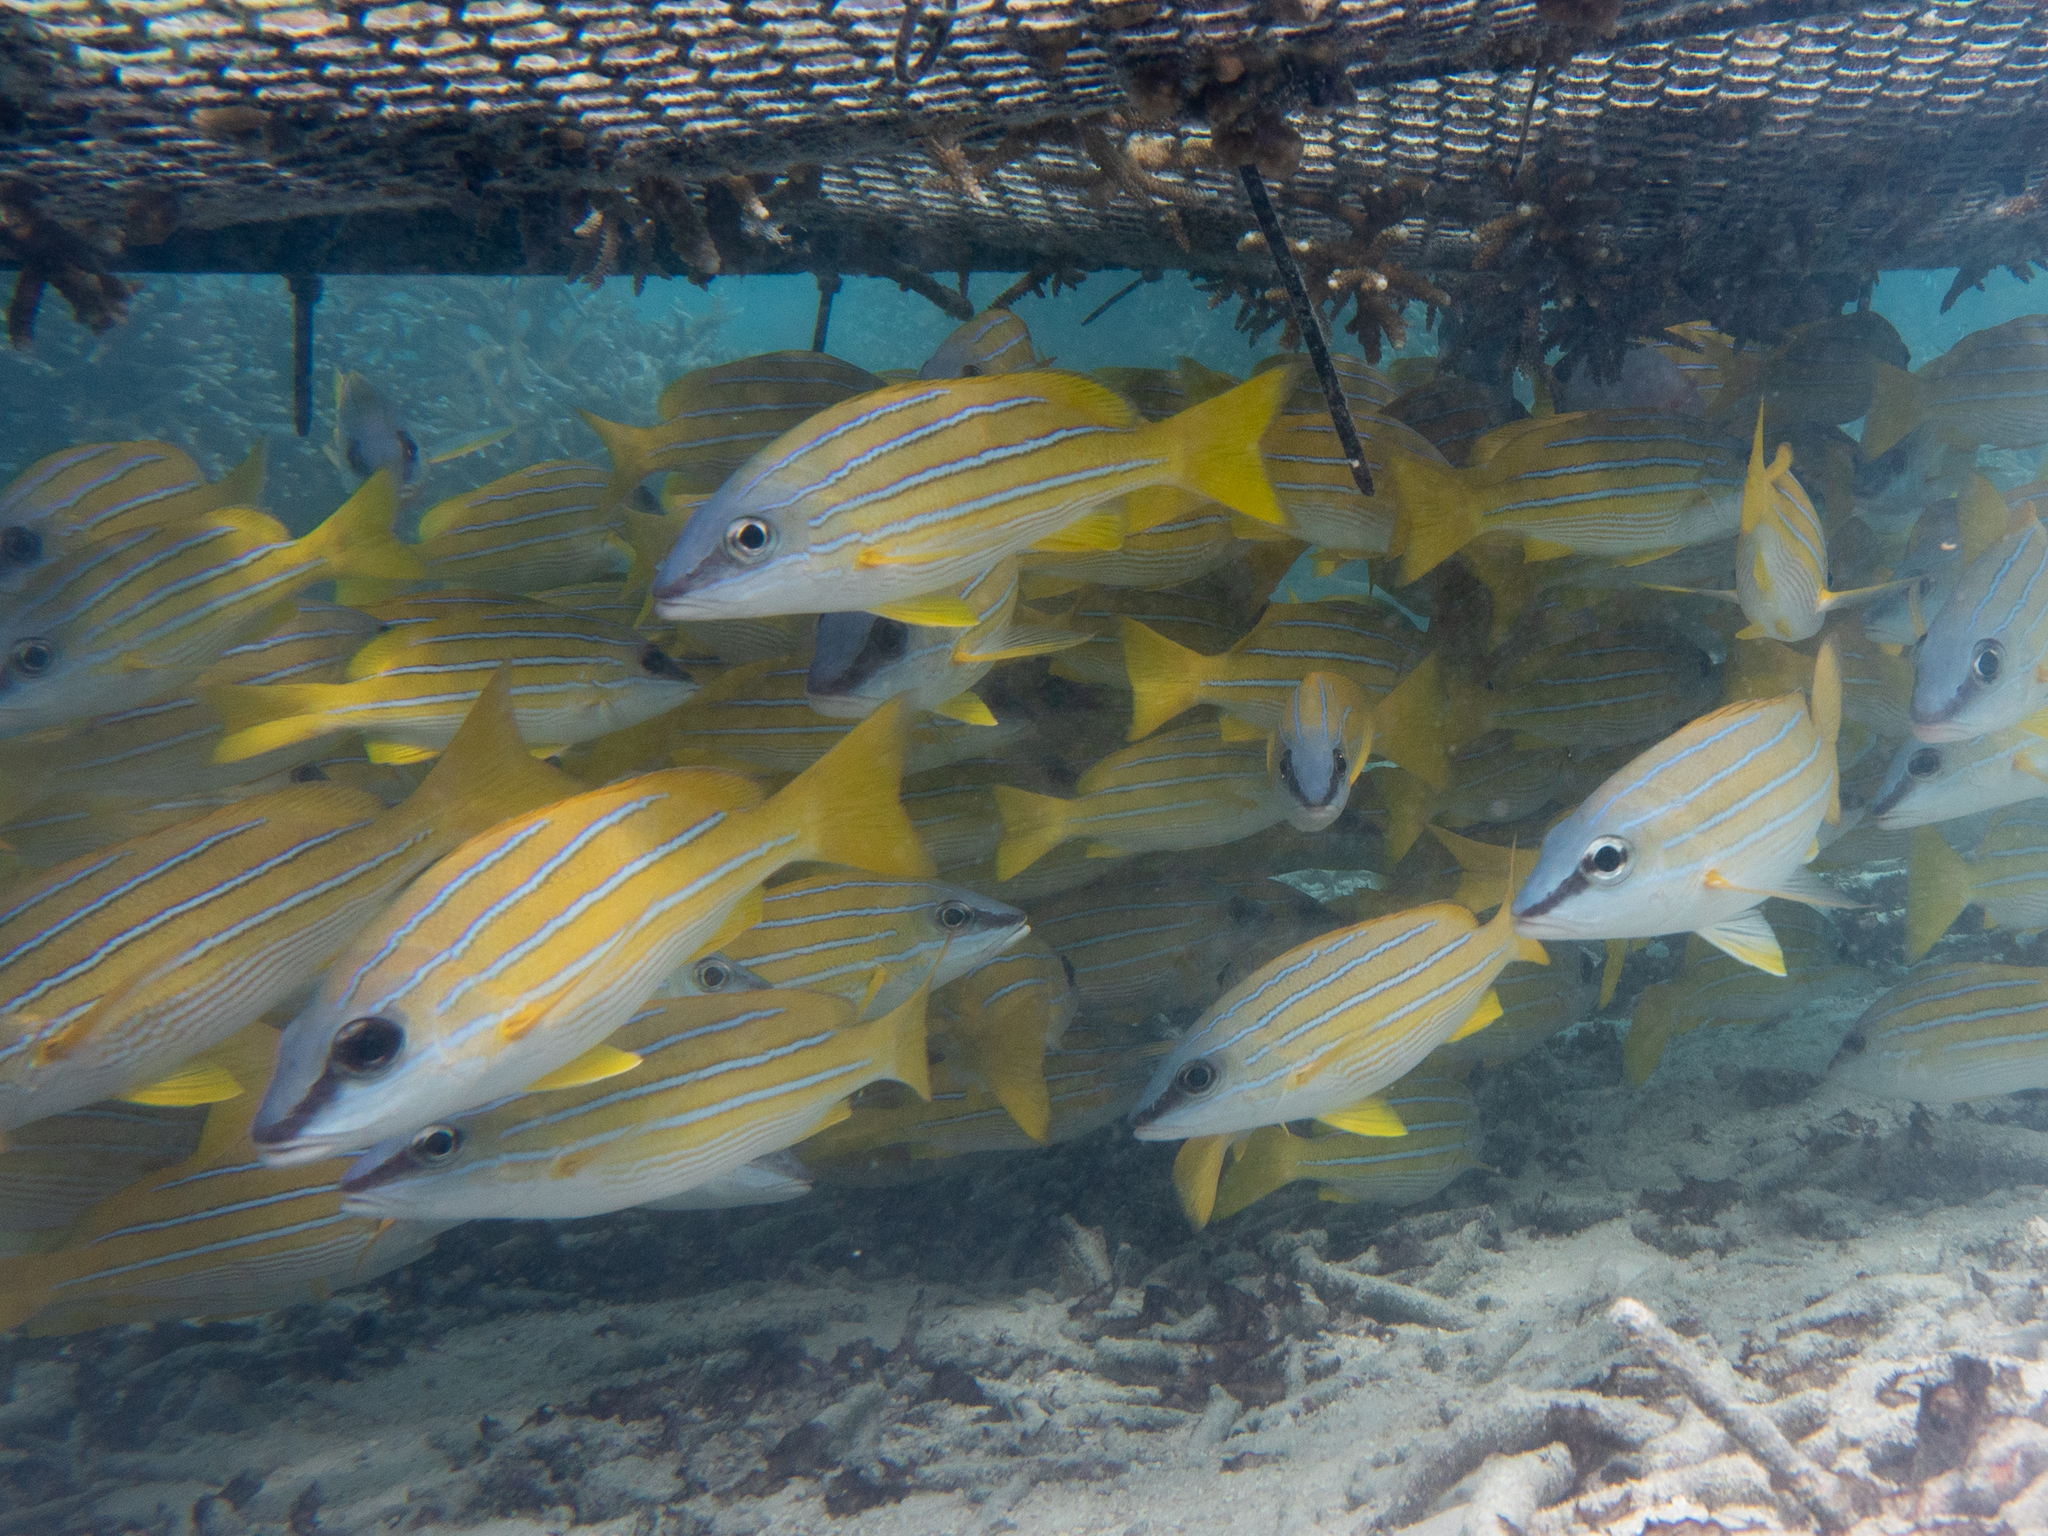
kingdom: Animalia
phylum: Chordata
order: Perciformes
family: Lutjanidae
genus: Lutjanus
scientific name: Lutjanus kasmira
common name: Common bluestripe snapper
